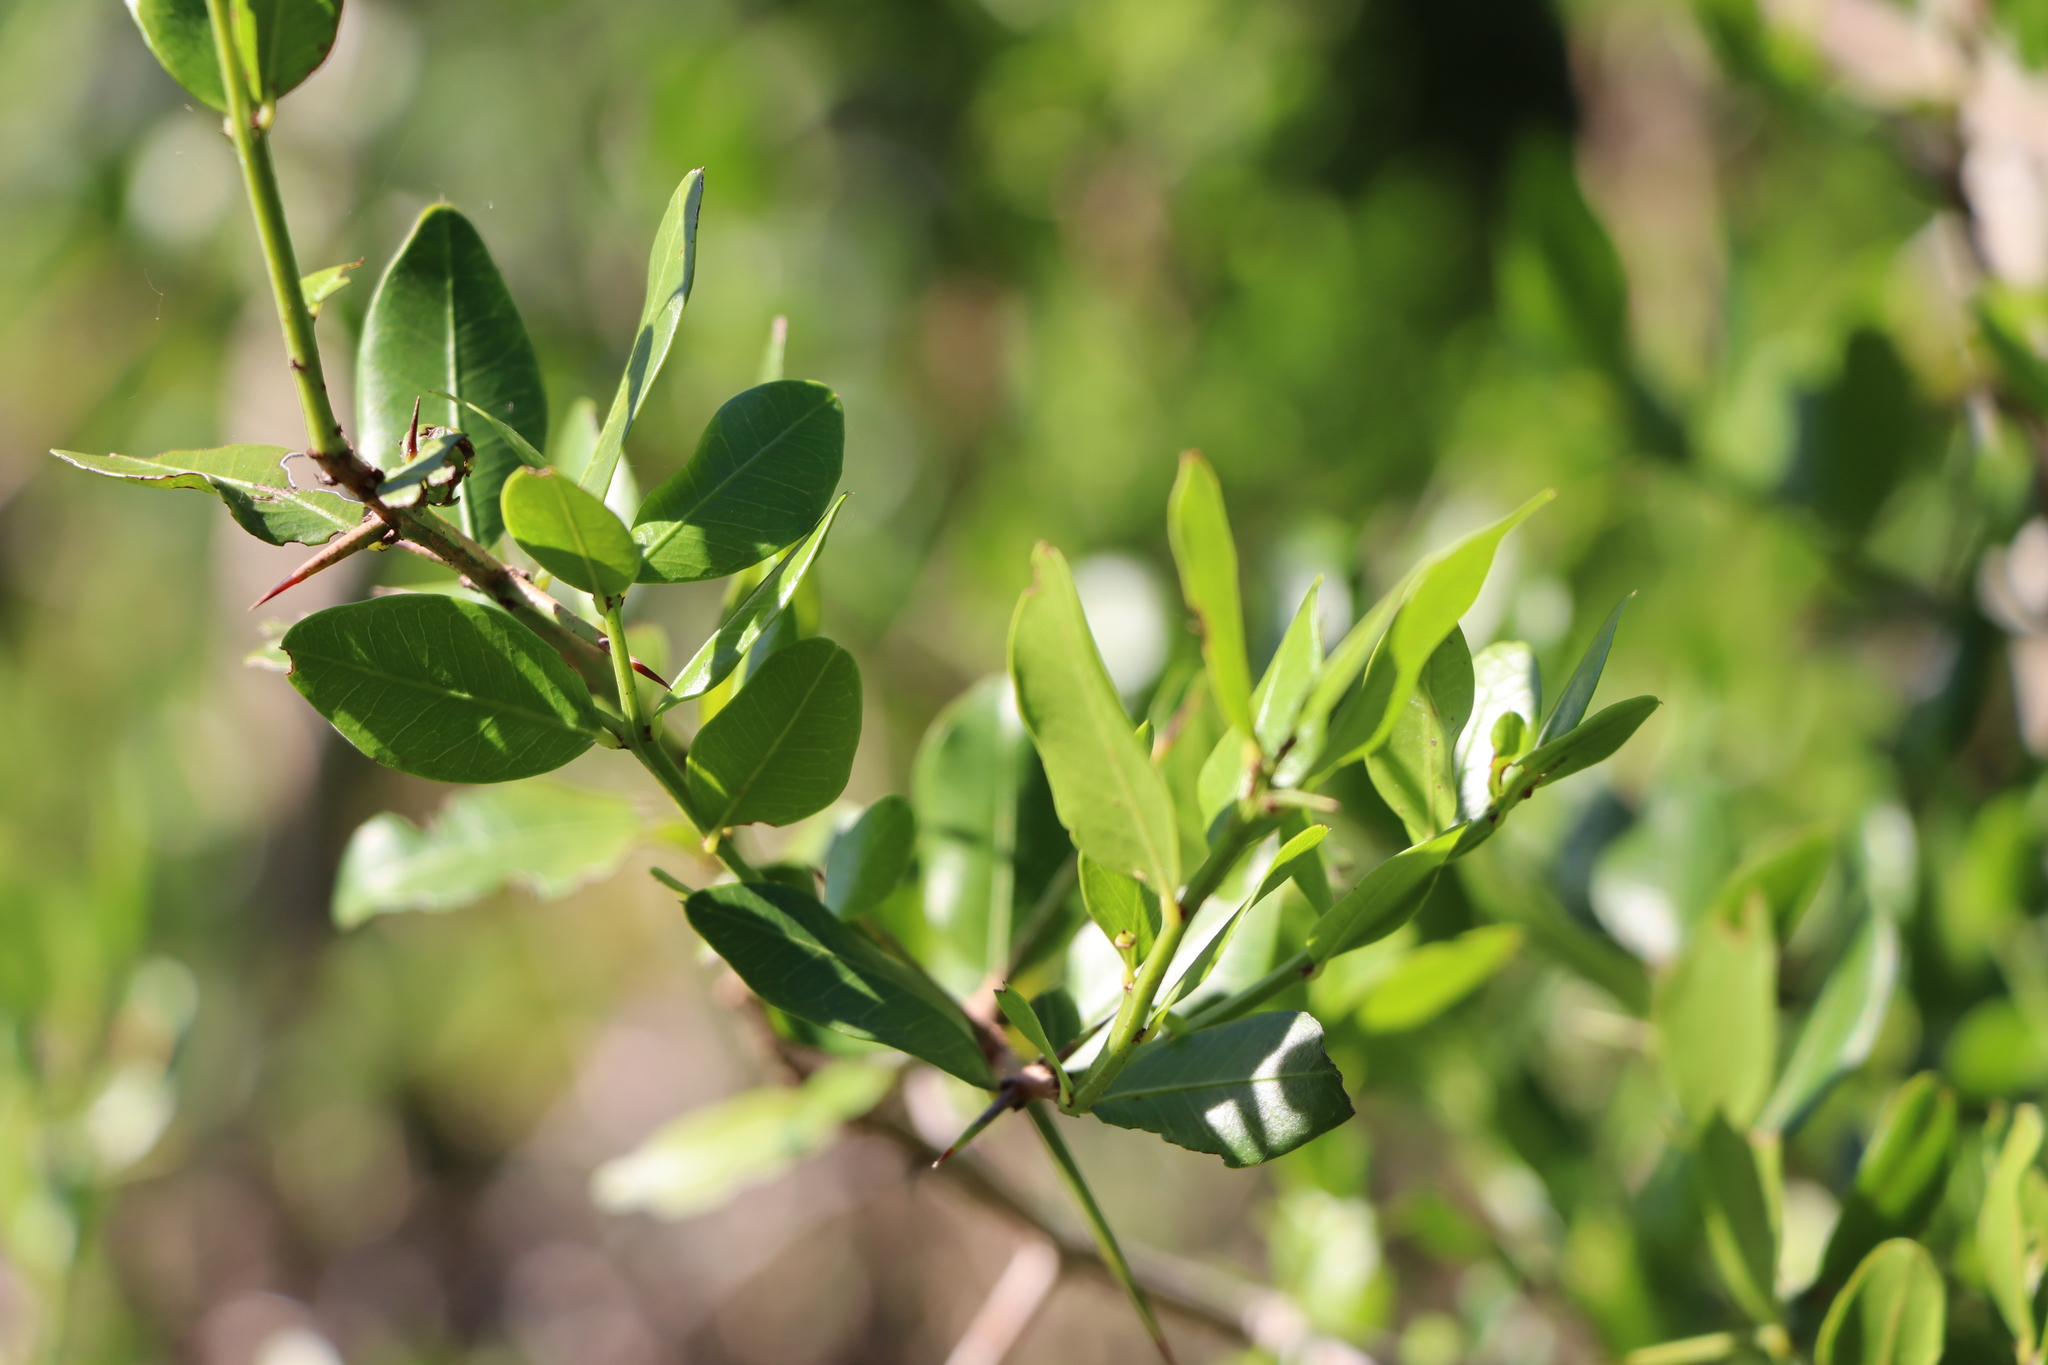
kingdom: Plantae
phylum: Tracheophyta
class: Magnoliopsida
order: Rosales
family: Rhamnaceae
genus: Scutia
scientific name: Scutia buxifolia
